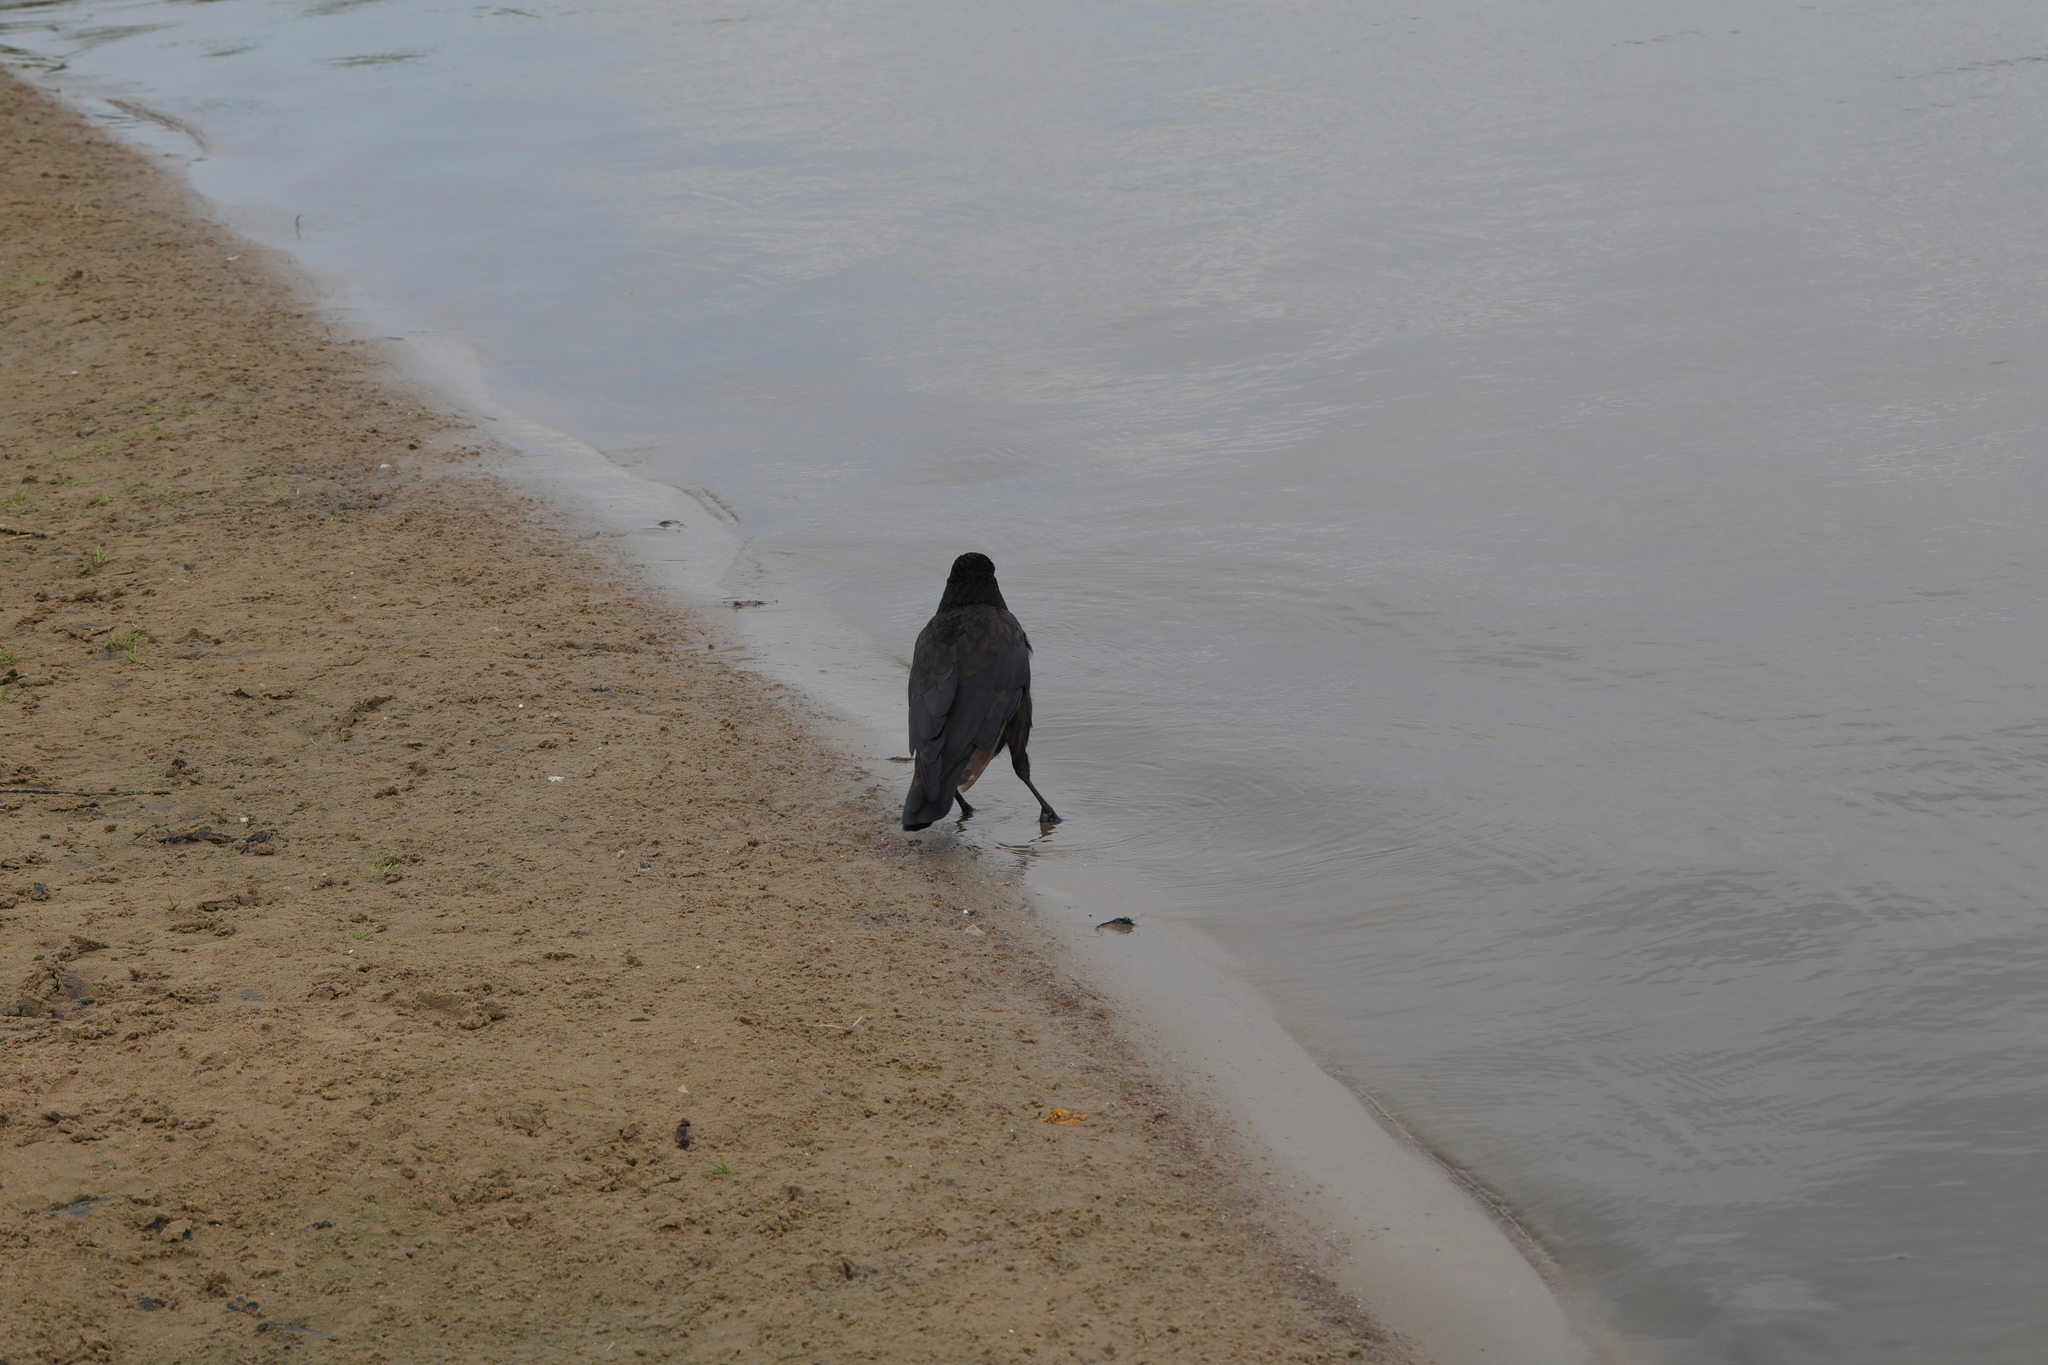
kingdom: Animalia
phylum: Chordata
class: Aves
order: Passeriformes
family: Corvidae
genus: Corvus
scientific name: Corvus corone
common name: Carrion crow
